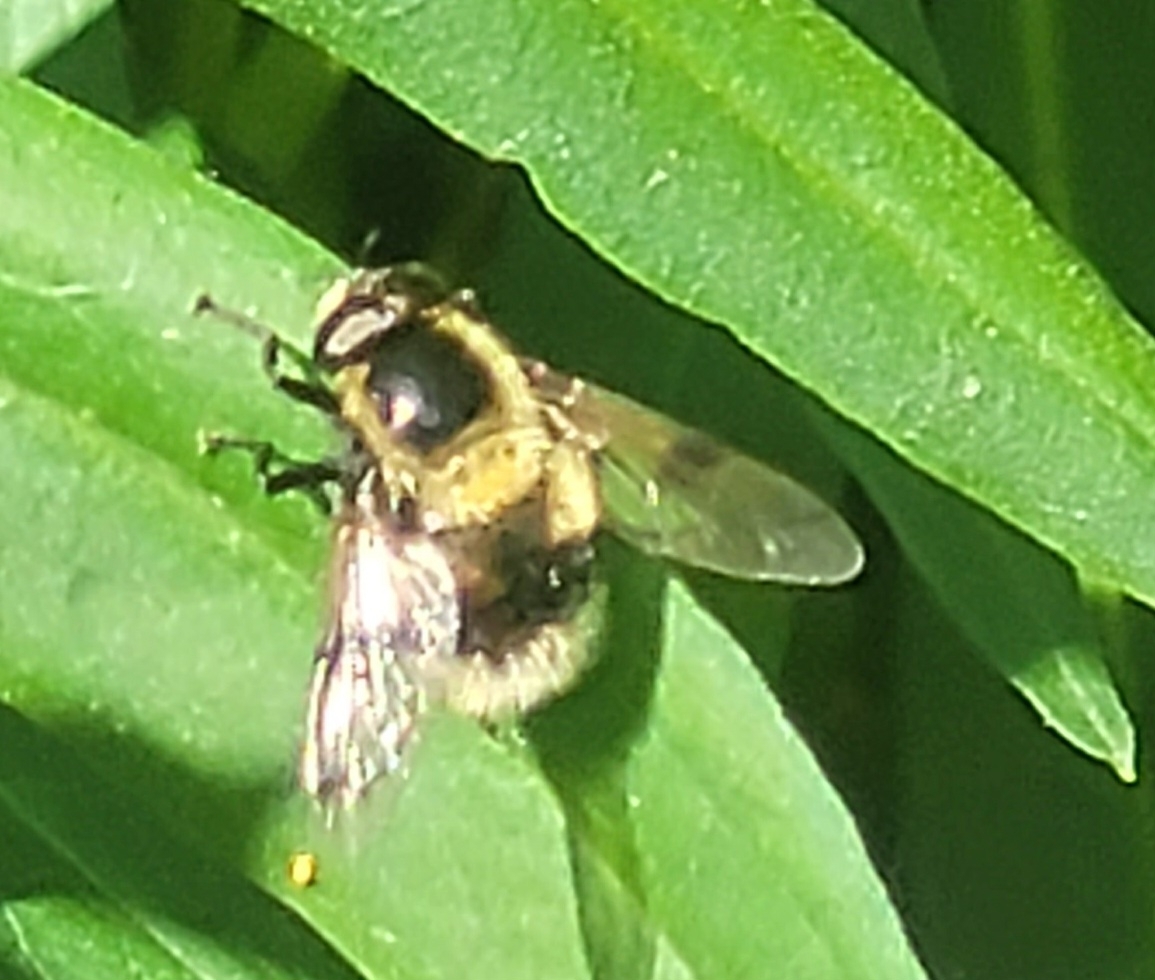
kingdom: Animalia
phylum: Arthropoda
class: Insecta
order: Diptera
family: Syrphidae
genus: Volucella
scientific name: Volucella bombylans
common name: Bumble bee hover fly
